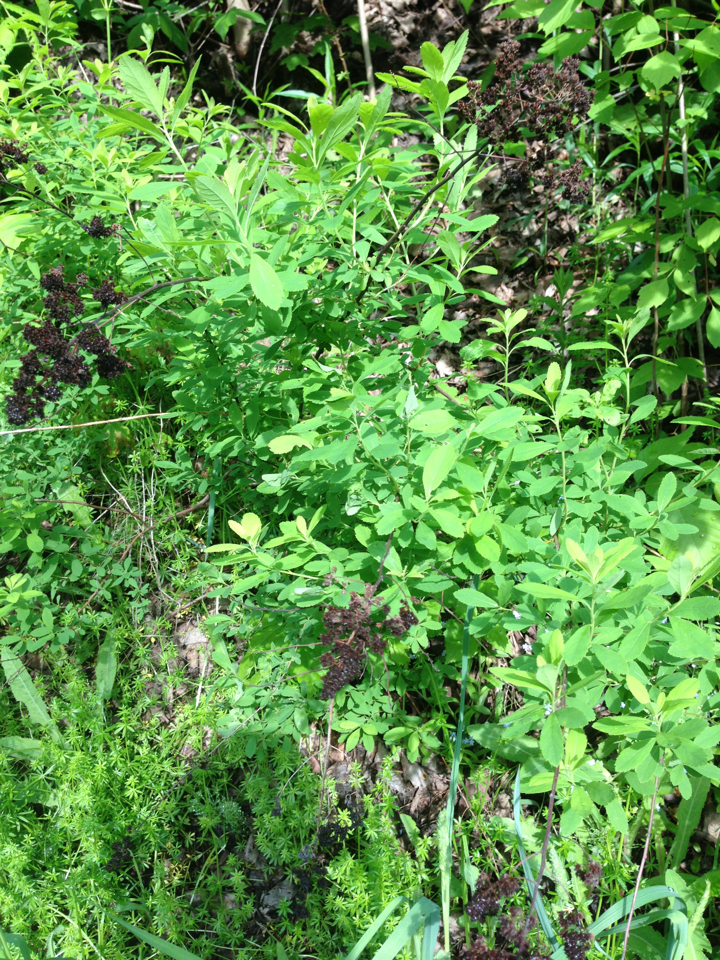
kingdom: Plantae
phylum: Tracheophyta
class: Magnoliopsida
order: Rosales
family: Rosaceae
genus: Spiraea
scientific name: Spiraea alba
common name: Pale bridewort
